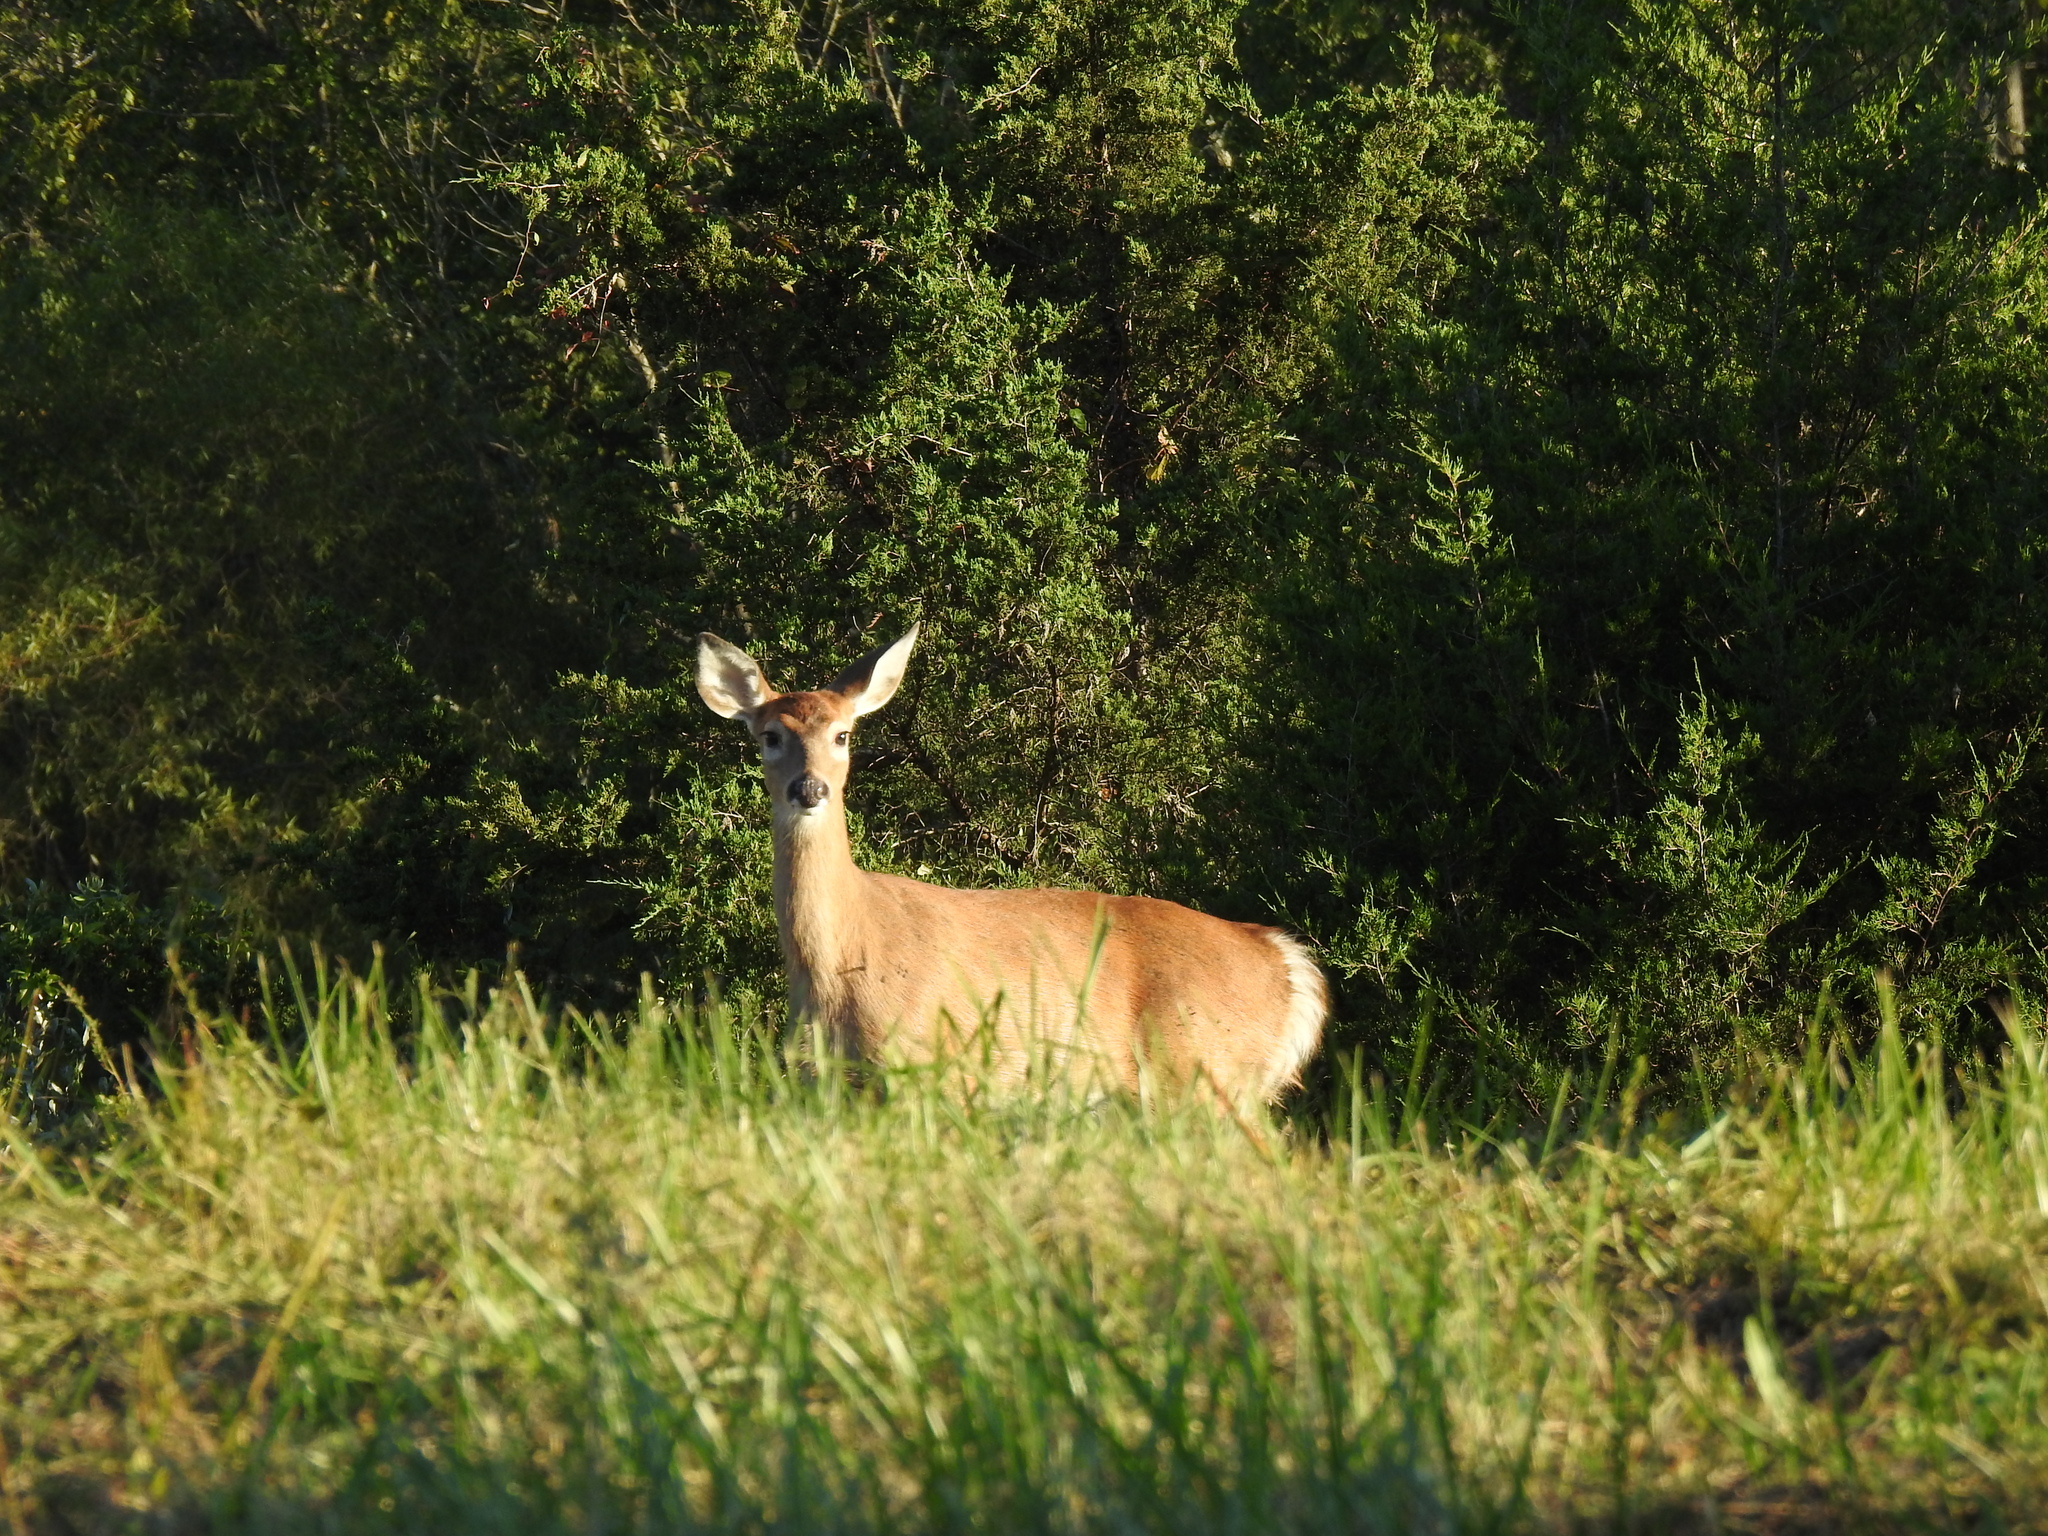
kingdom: Animalia
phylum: Chordata
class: Mammalia
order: Artiodactyla
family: Cervidae
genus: Odocoileus
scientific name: Odocoileus virginianus
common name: White-tailed deer
